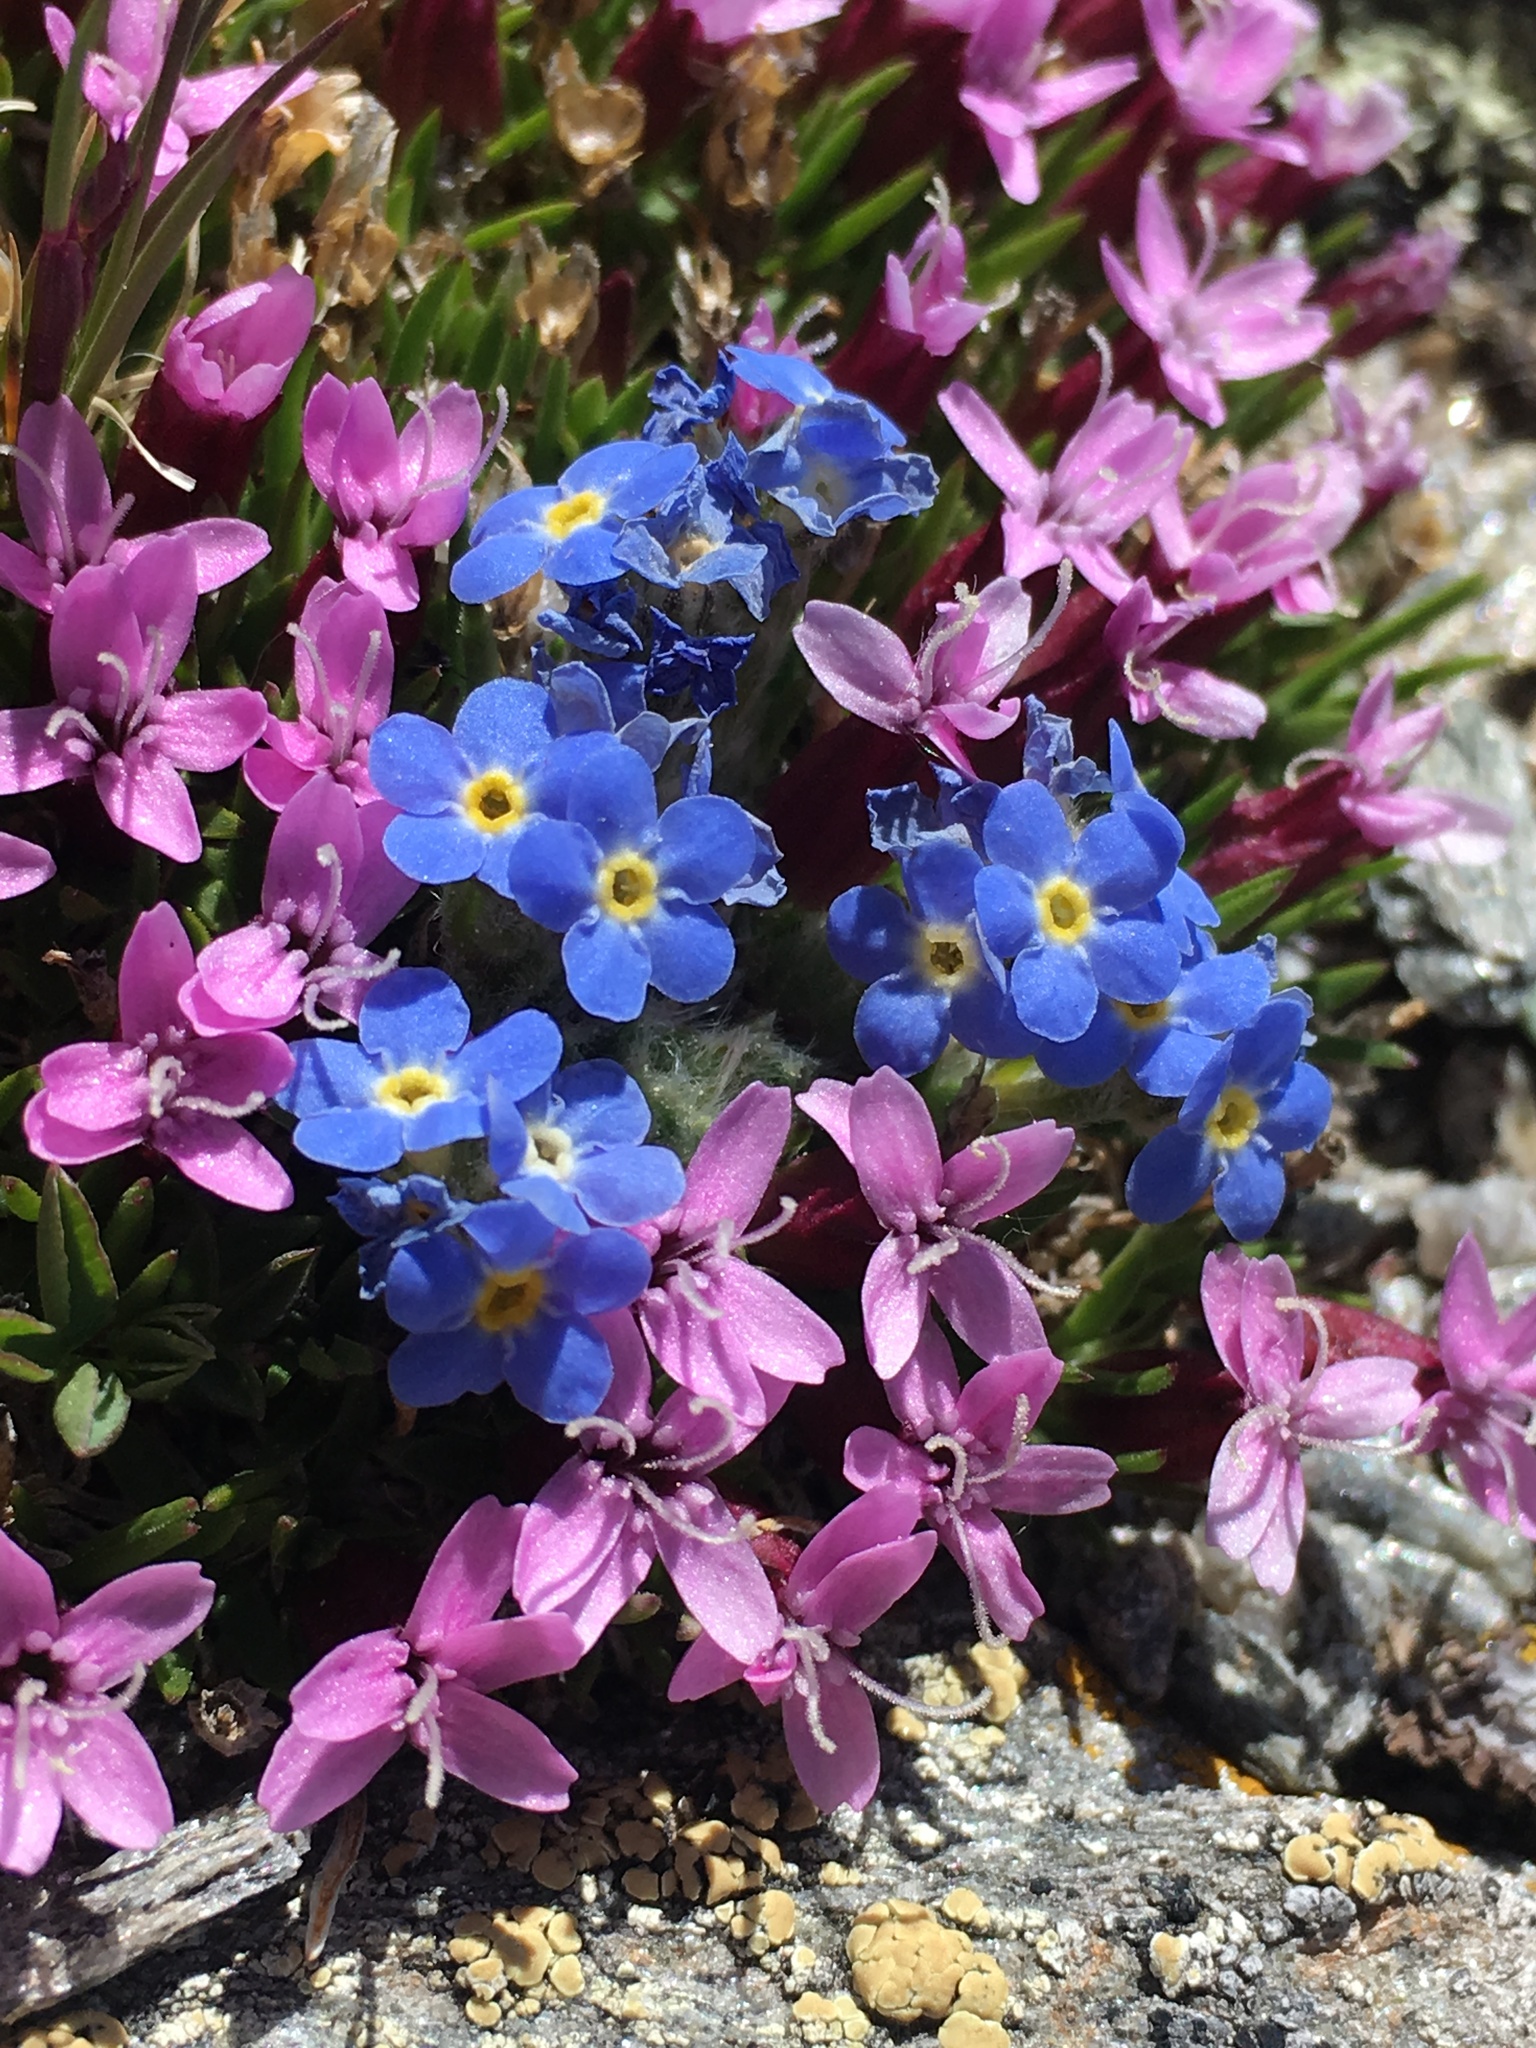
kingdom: Plantae
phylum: Tracheophyta
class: Magnoliopsida
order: Boraginales
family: Boraginaceae
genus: Eritrichium
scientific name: Eritrichium argenteum
